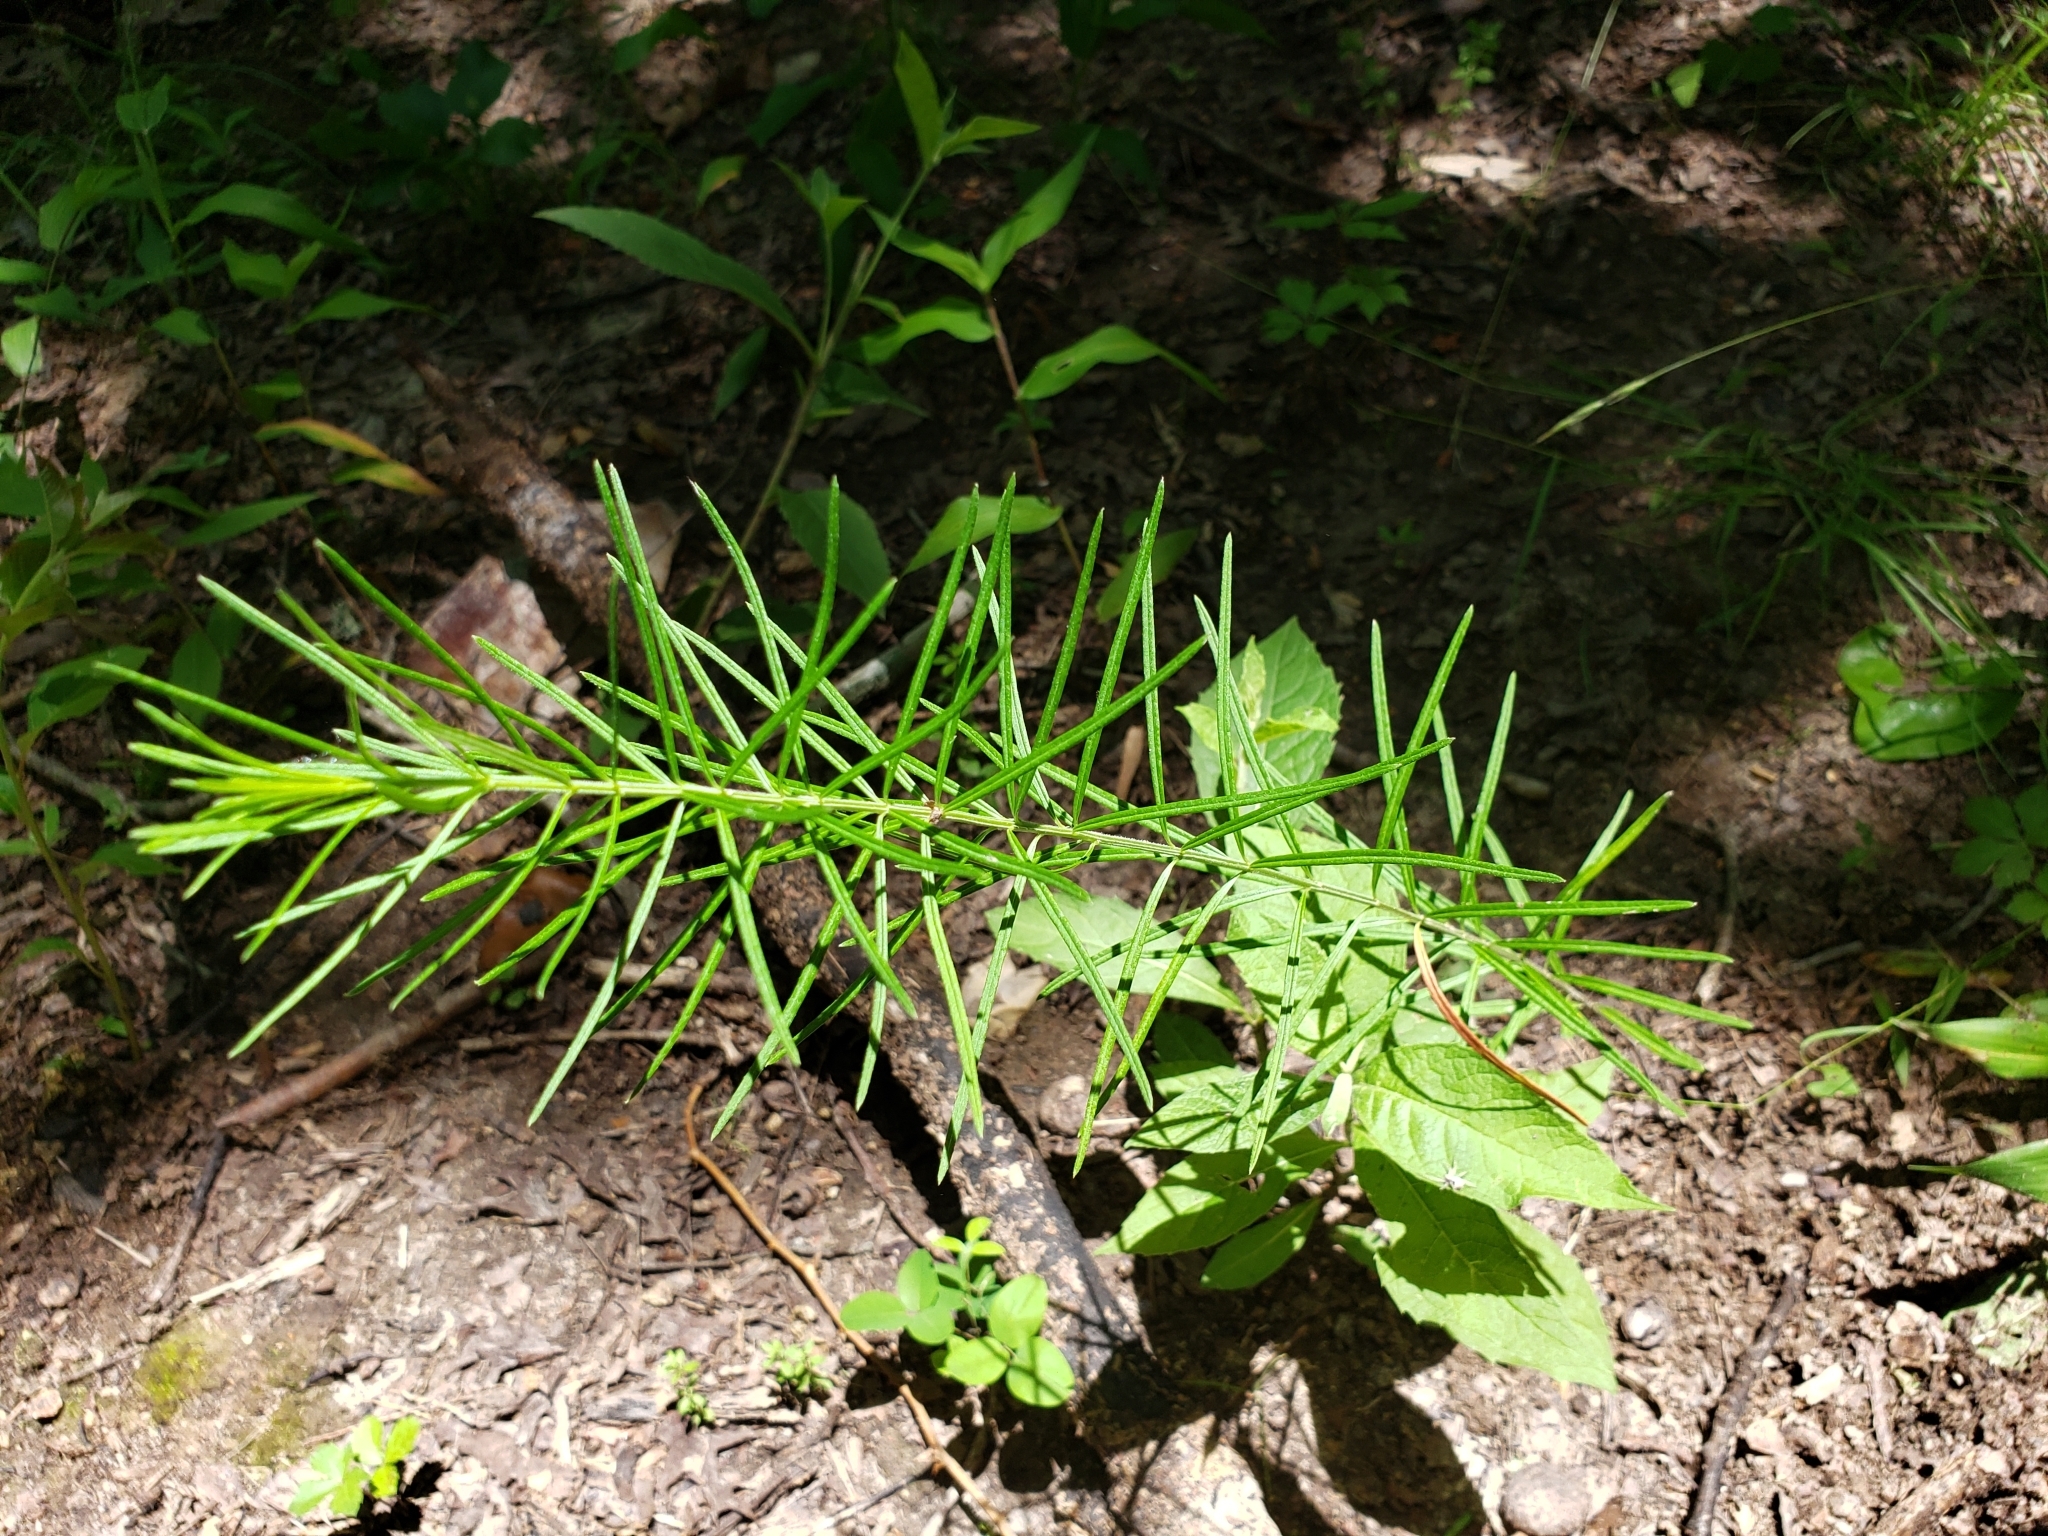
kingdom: Plantae
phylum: Tracheophyta
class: Magnoliopsida
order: Gentianales
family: Apocynaceae
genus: Asclepias
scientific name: Asclepias verticillata
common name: Eastern whorled milkweed
